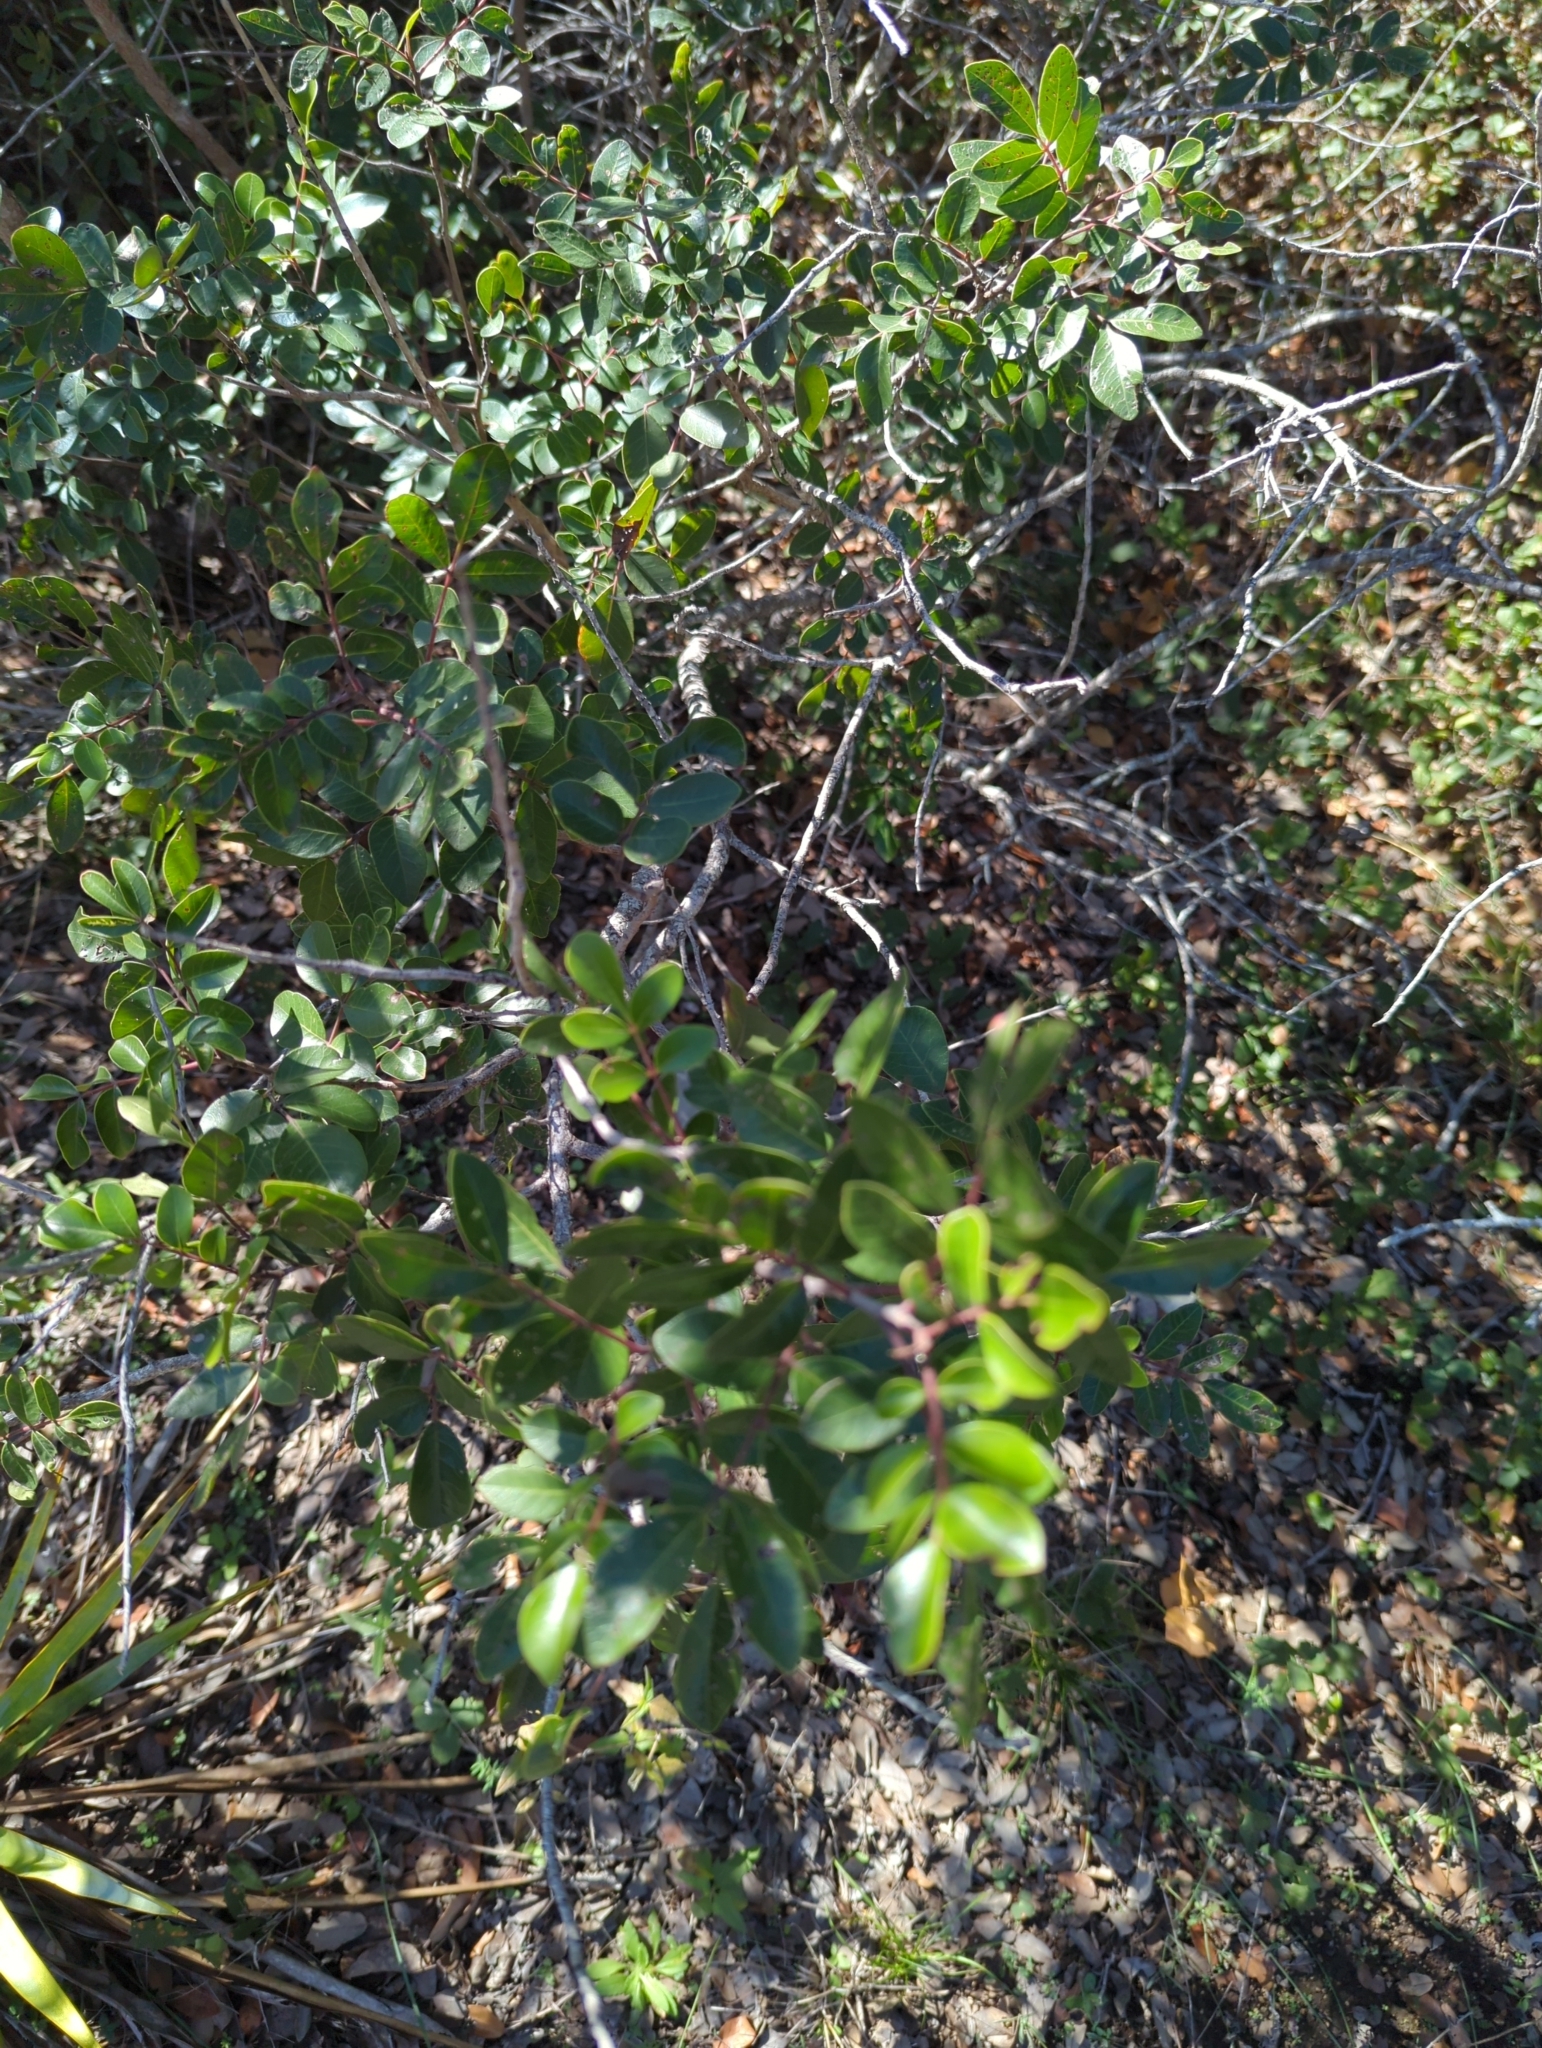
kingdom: Plantae
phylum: Tracheophyta
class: Magnoliopsida
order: Sapindales
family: Anacardiaceae
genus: Rhus
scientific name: Rhus virens
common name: Evergreen sumac
